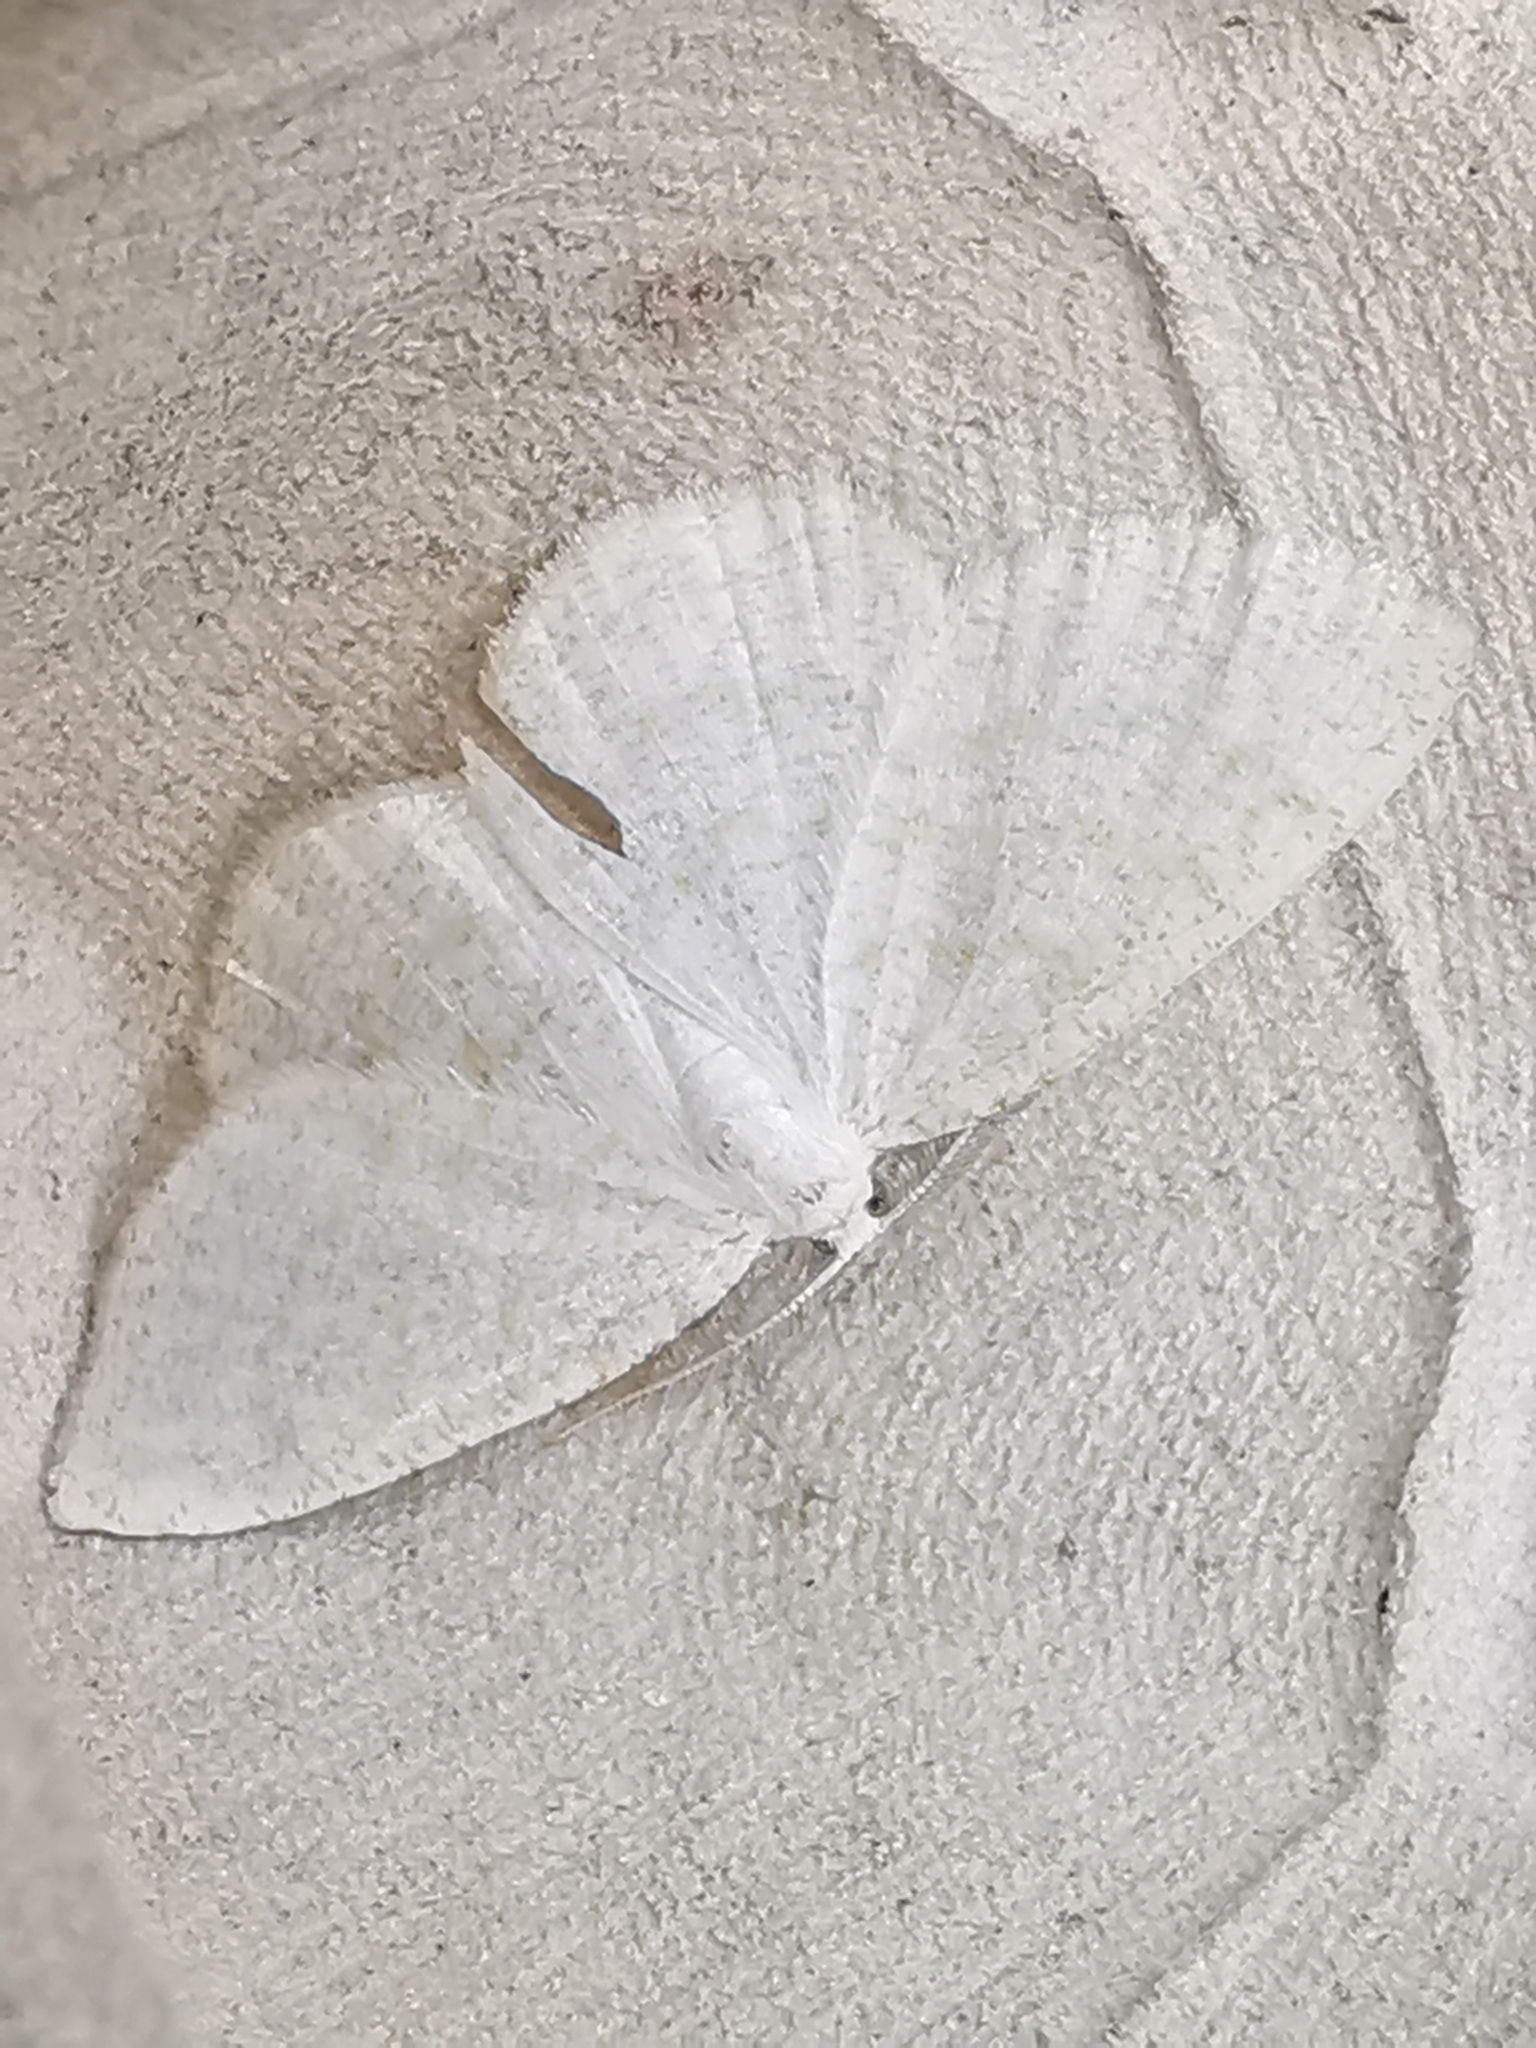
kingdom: Animalia
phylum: Arthropoda
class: Insecta
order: Lepidoptera
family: Geometridae
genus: Cabera
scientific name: Cabera exanthemata
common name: Common wave
